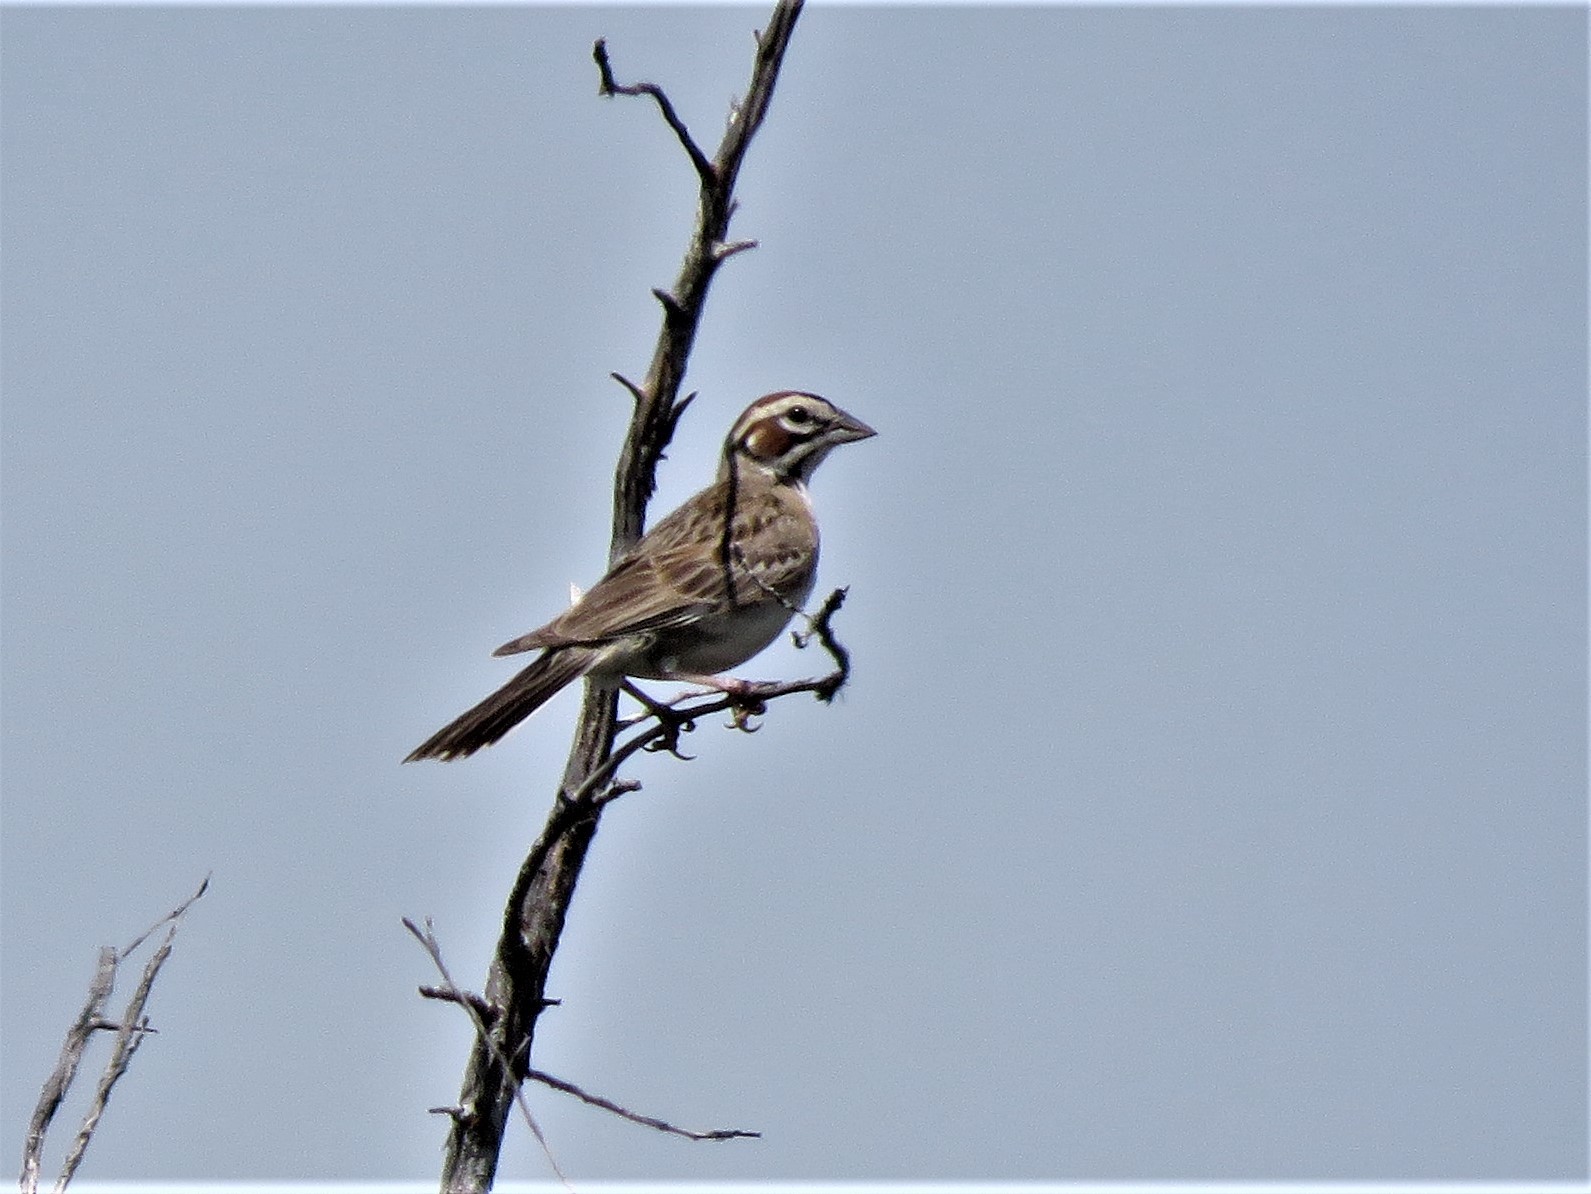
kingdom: Animalia
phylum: Chordata
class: Aves
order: Passeriformes
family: Passerellidae
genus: Chondestes
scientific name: Chondestes grammacus
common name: Lark sparrow
